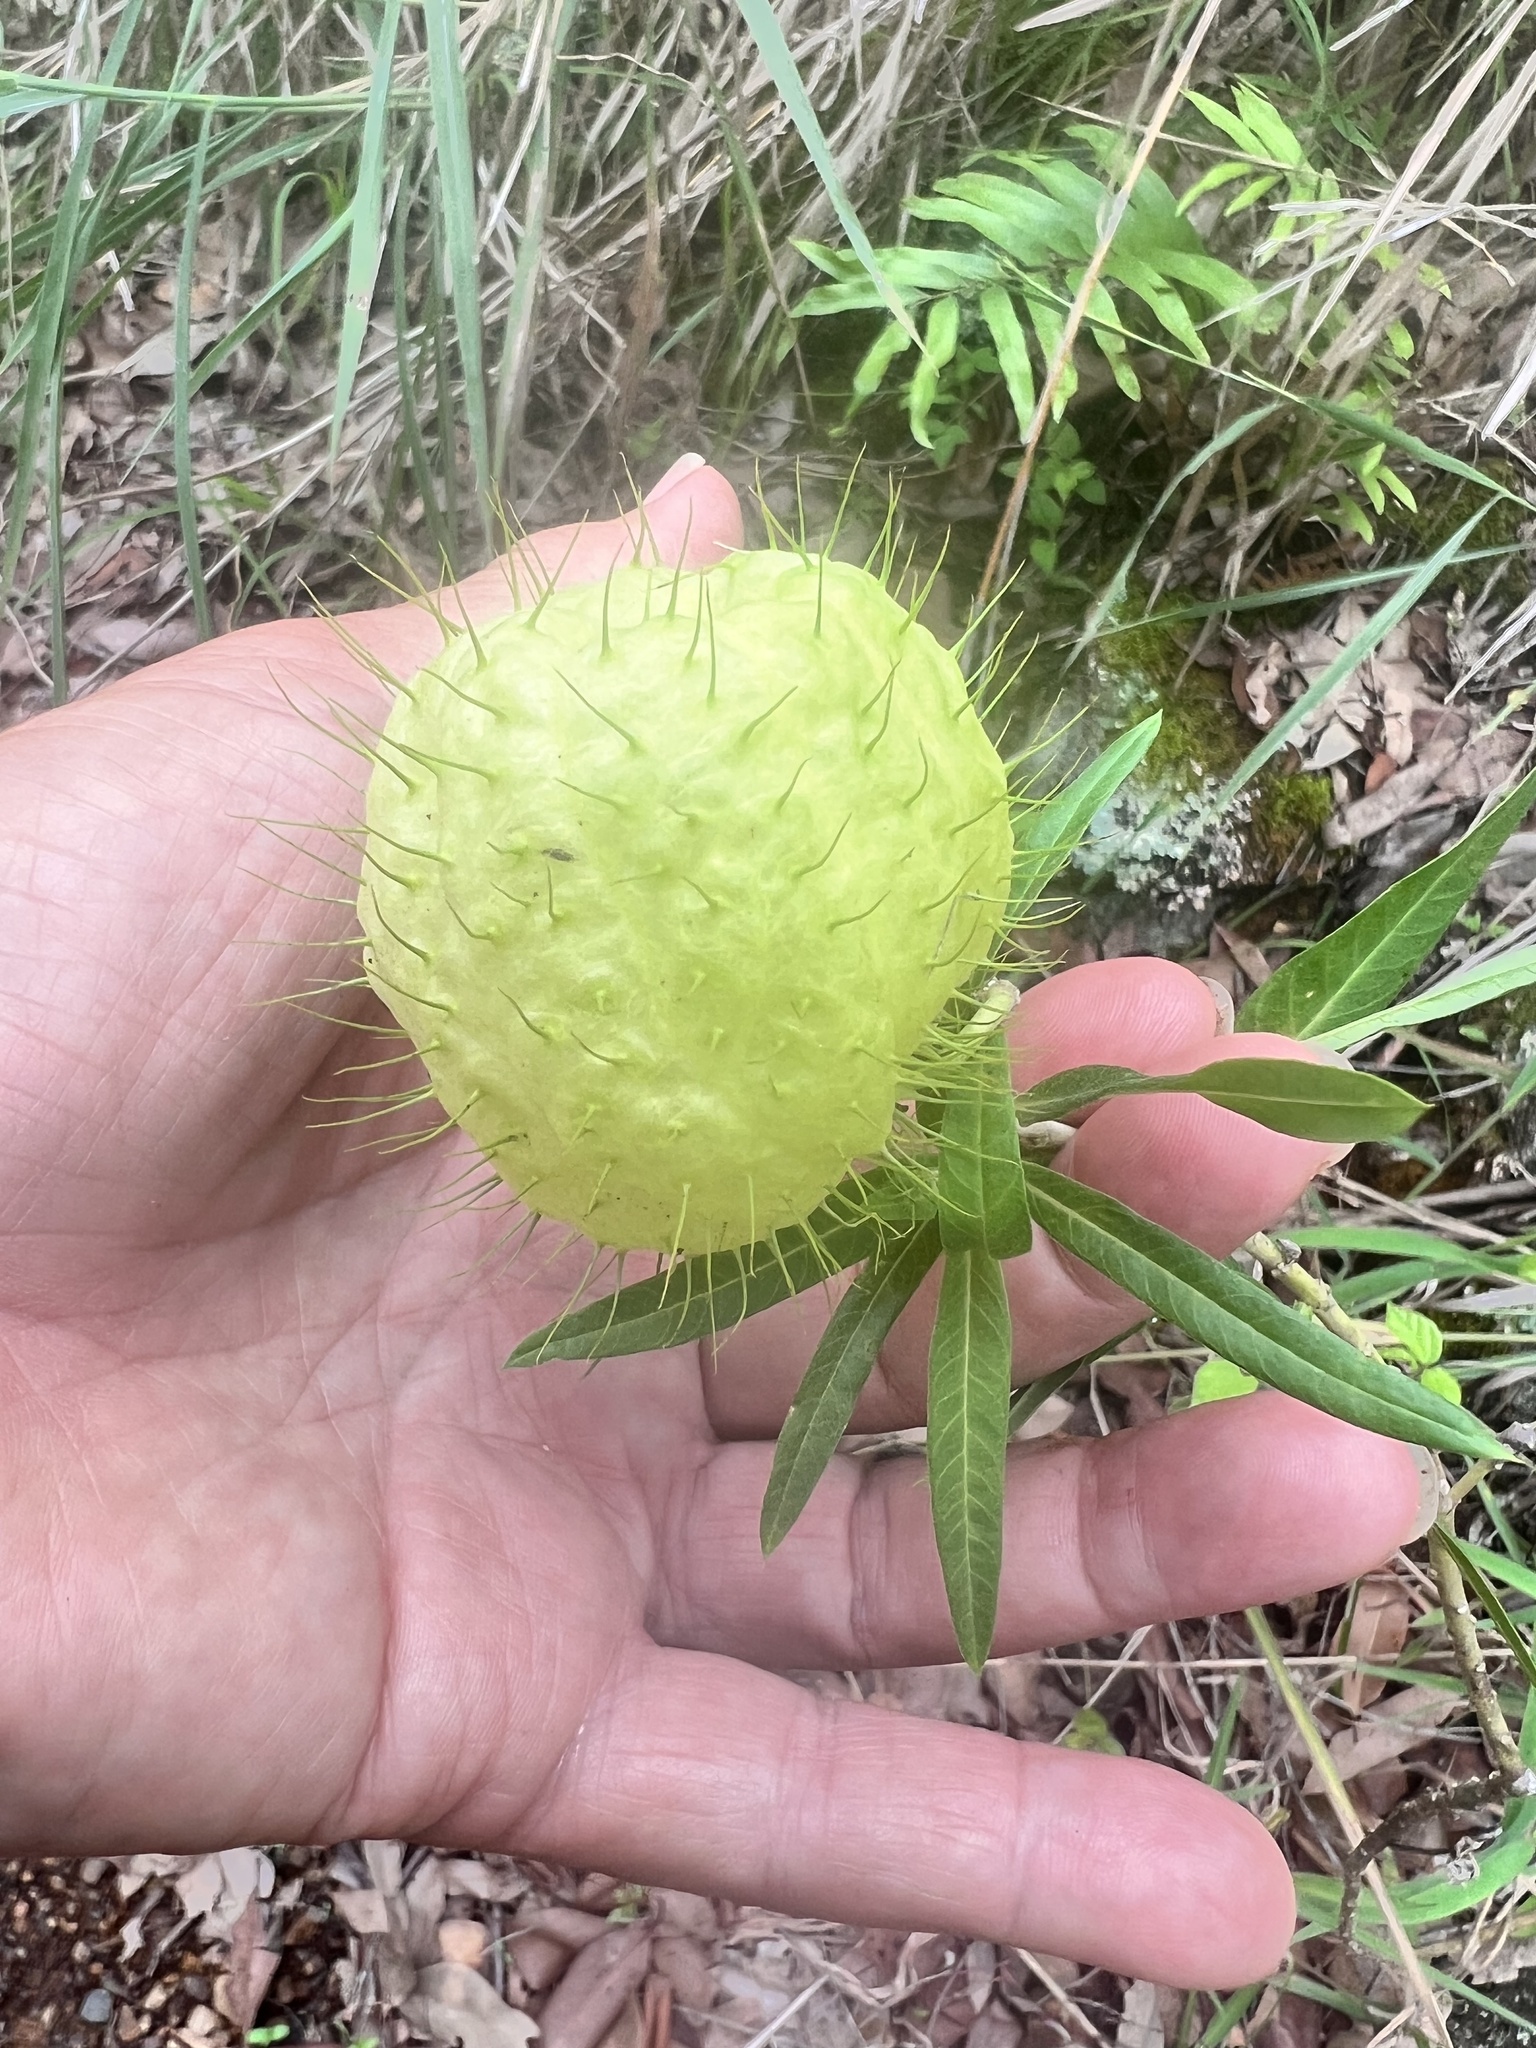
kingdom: Plantae
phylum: Tracheophyta
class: Magnoliopsida
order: Gentianales
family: Apocynaceae
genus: Gomphocarpus
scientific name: Gomphocarpus physocarpus
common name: Balloon cotton bush
